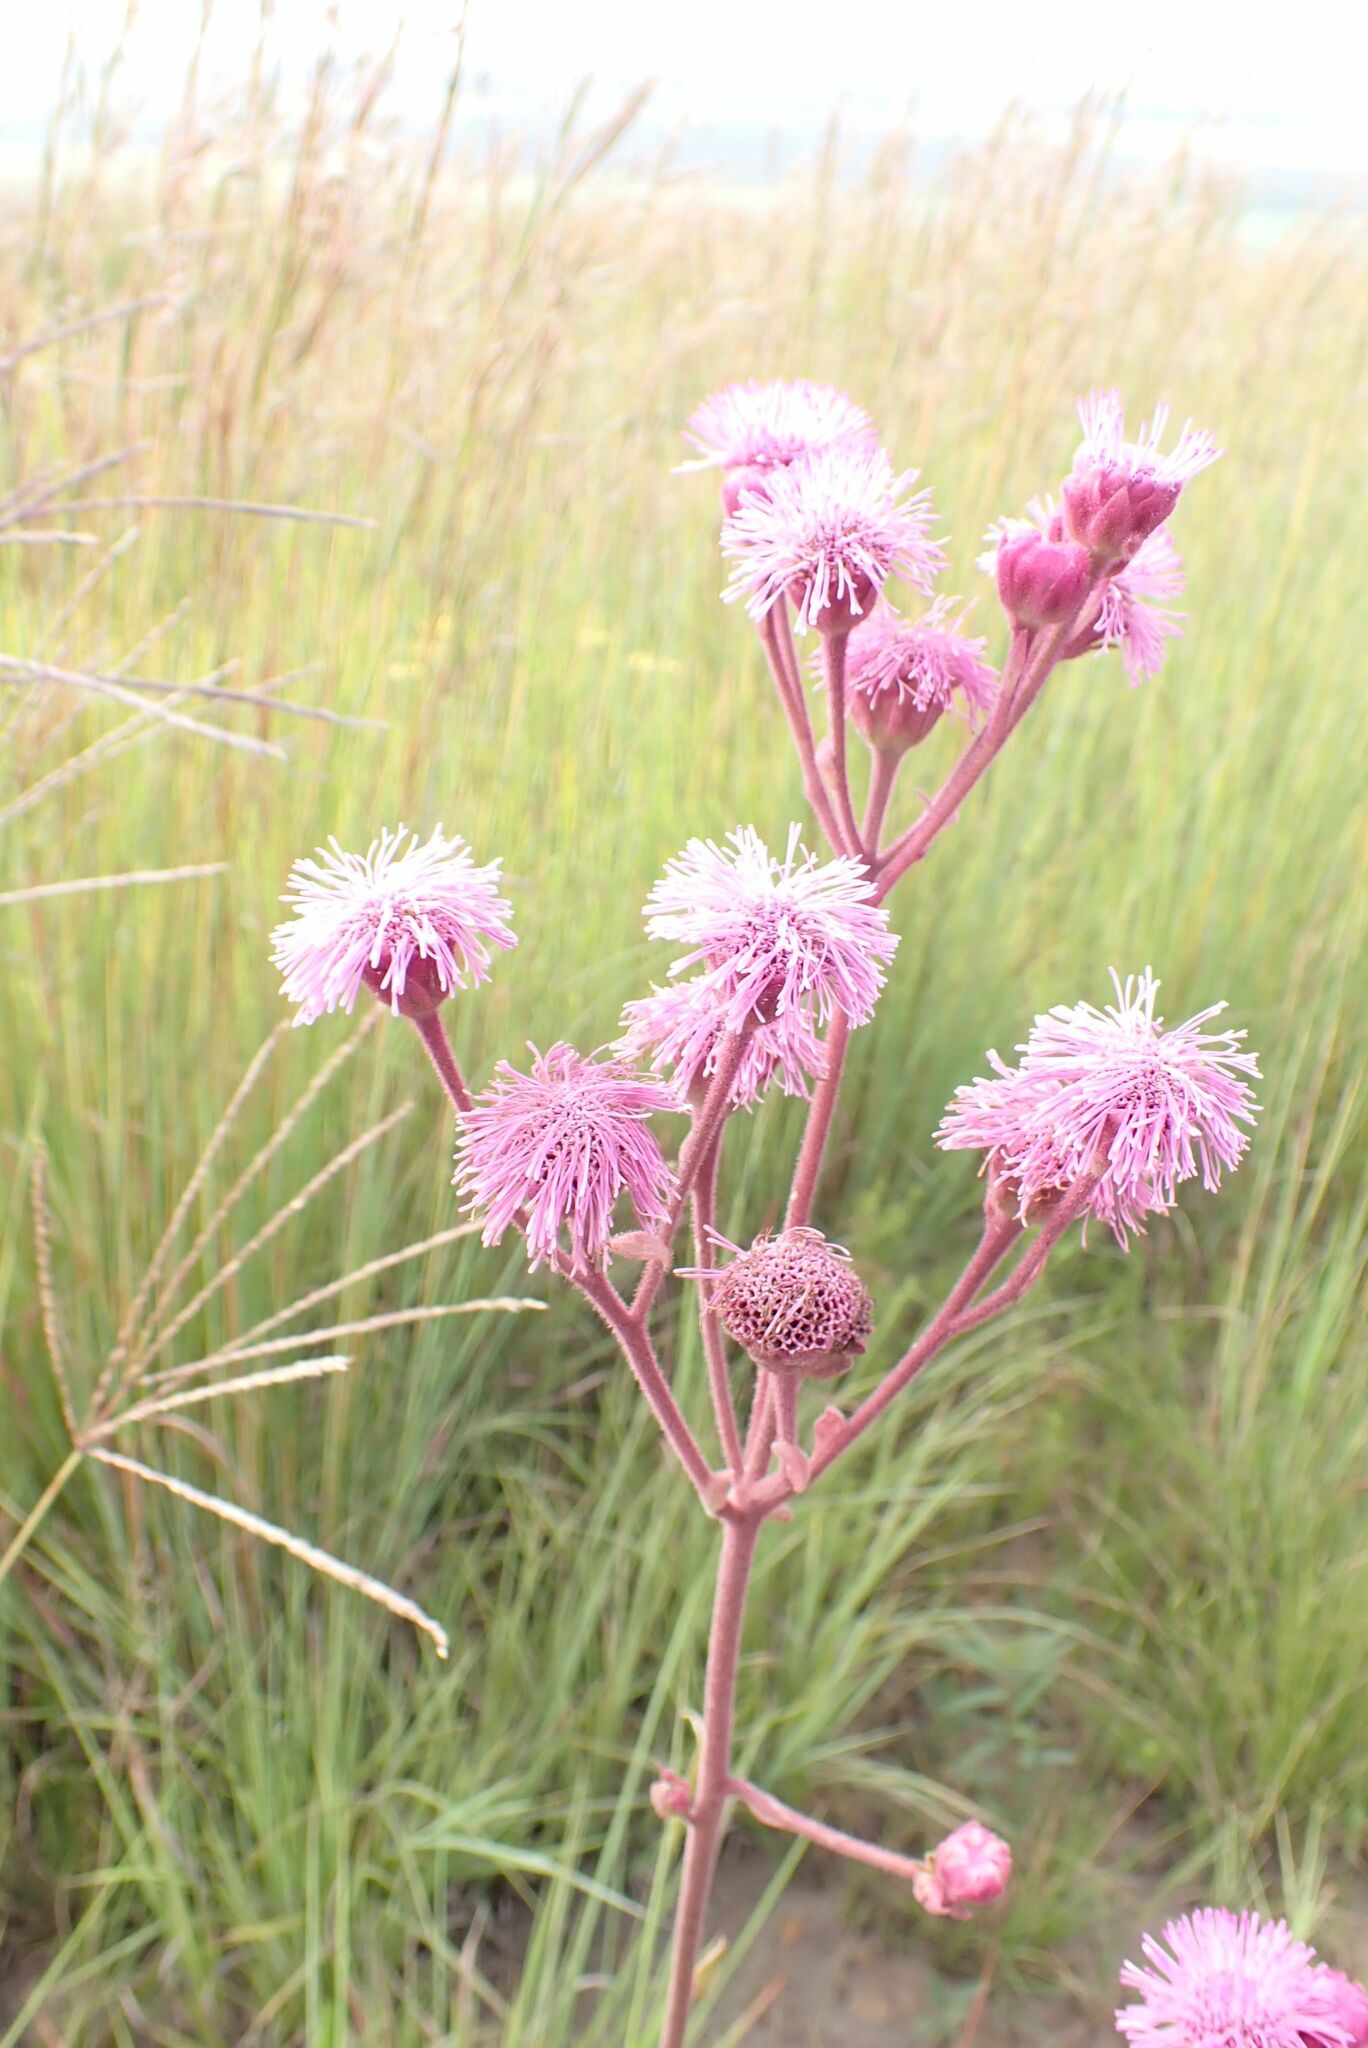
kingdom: Plantae
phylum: Tracheophyta
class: Magnoliopsida
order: Asterales
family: Asteraceae
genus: Campuloclinium
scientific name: Campuloclinium macrocephalum
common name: Pompomweed
